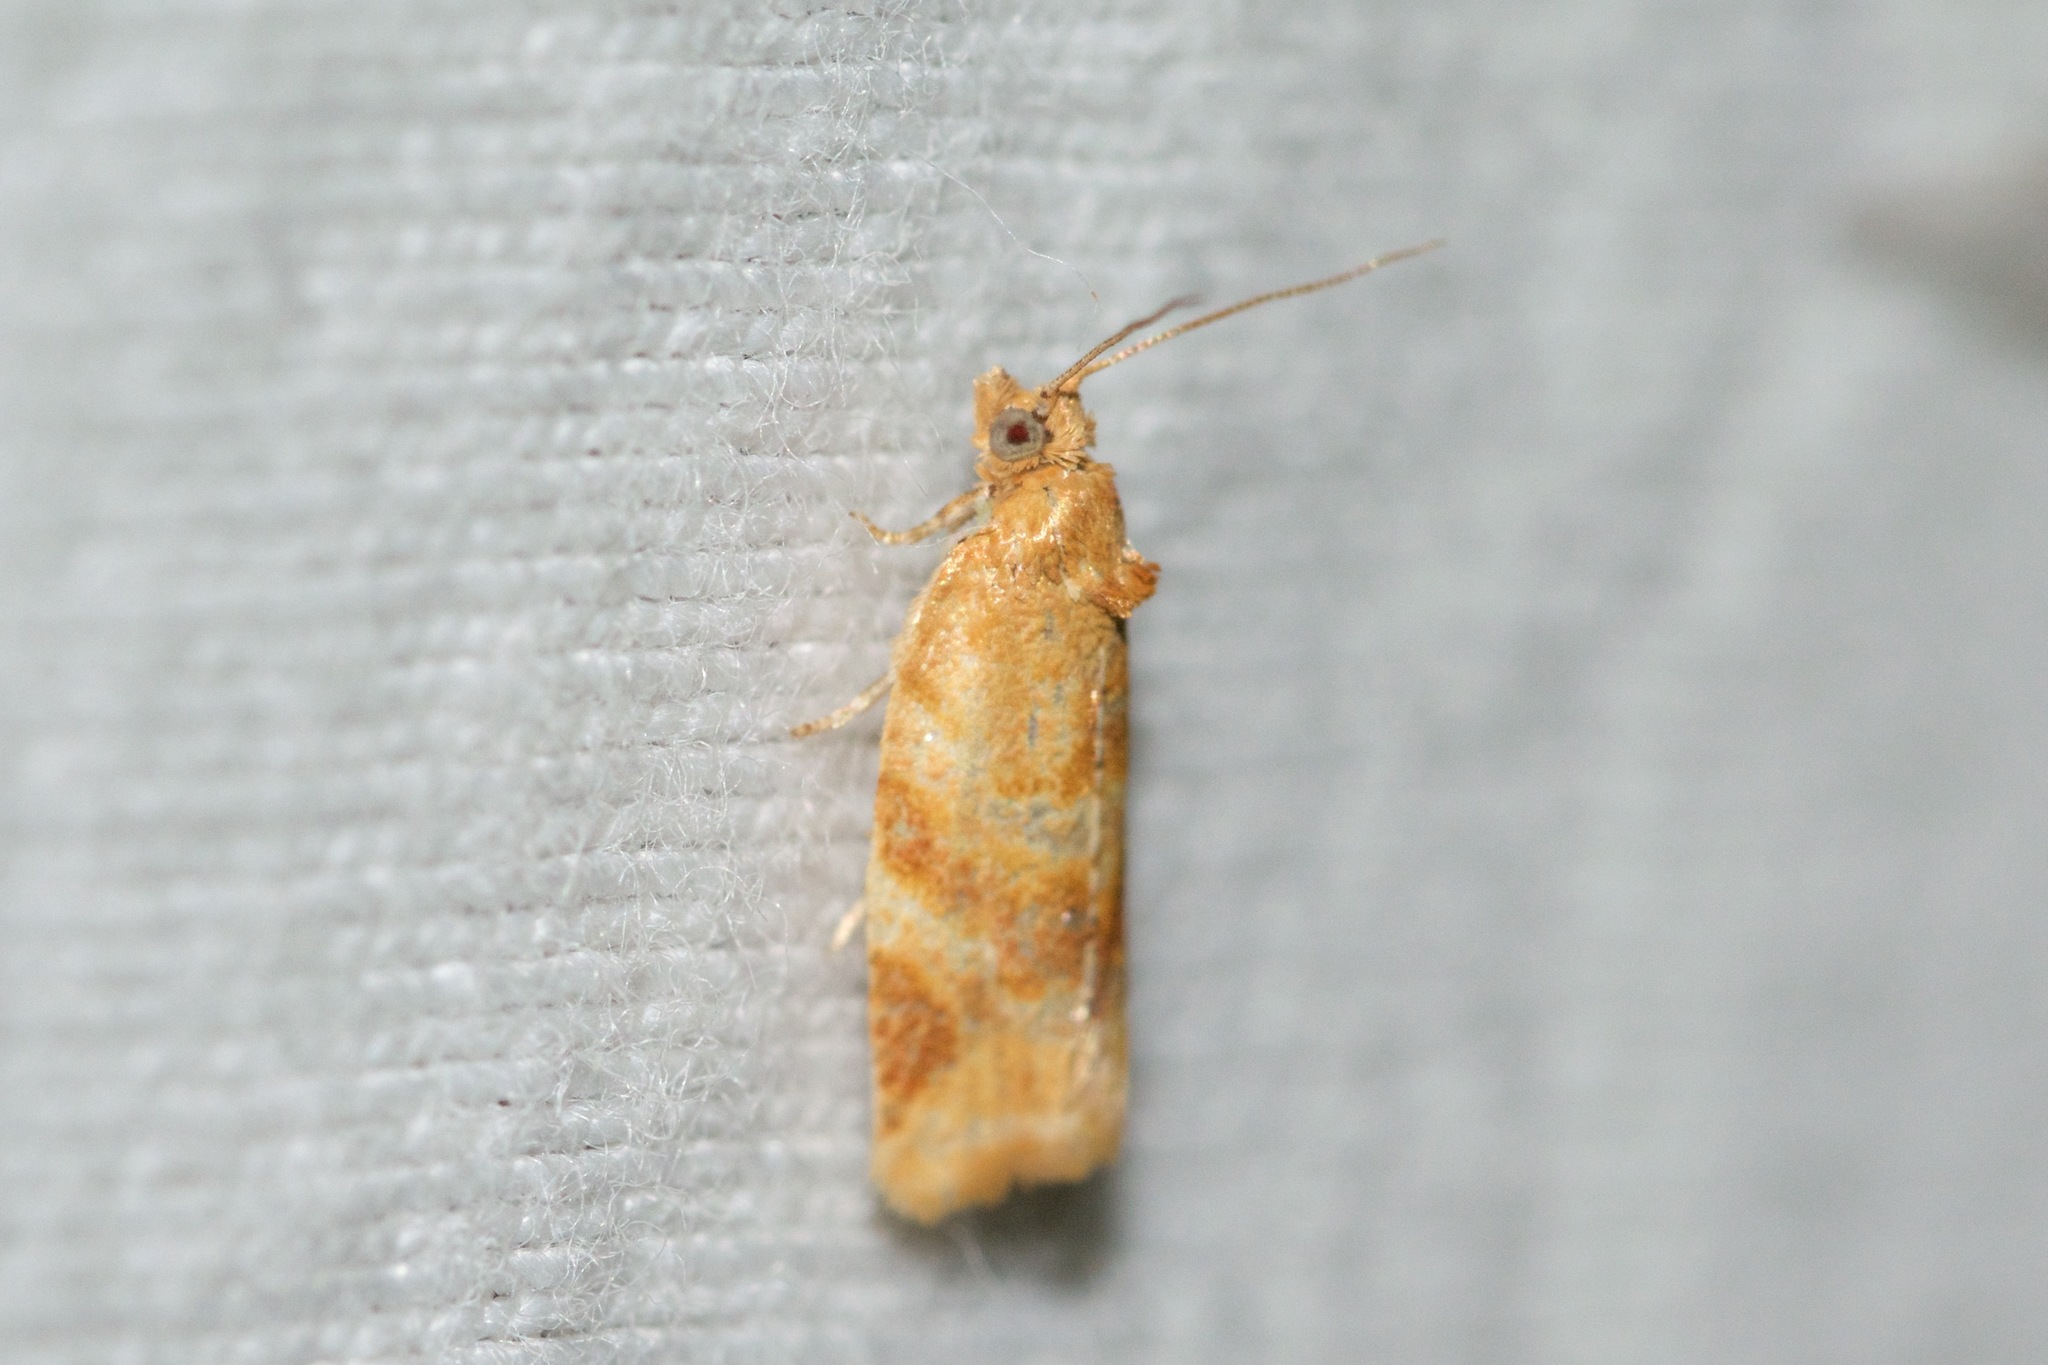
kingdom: Animalia
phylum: Arthropoda
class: Insecta
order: Lepidoptera
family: Tortricidae
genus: Argyrotaenia
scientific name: Argyrotaenia pinatubana
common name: Pine tube moth
